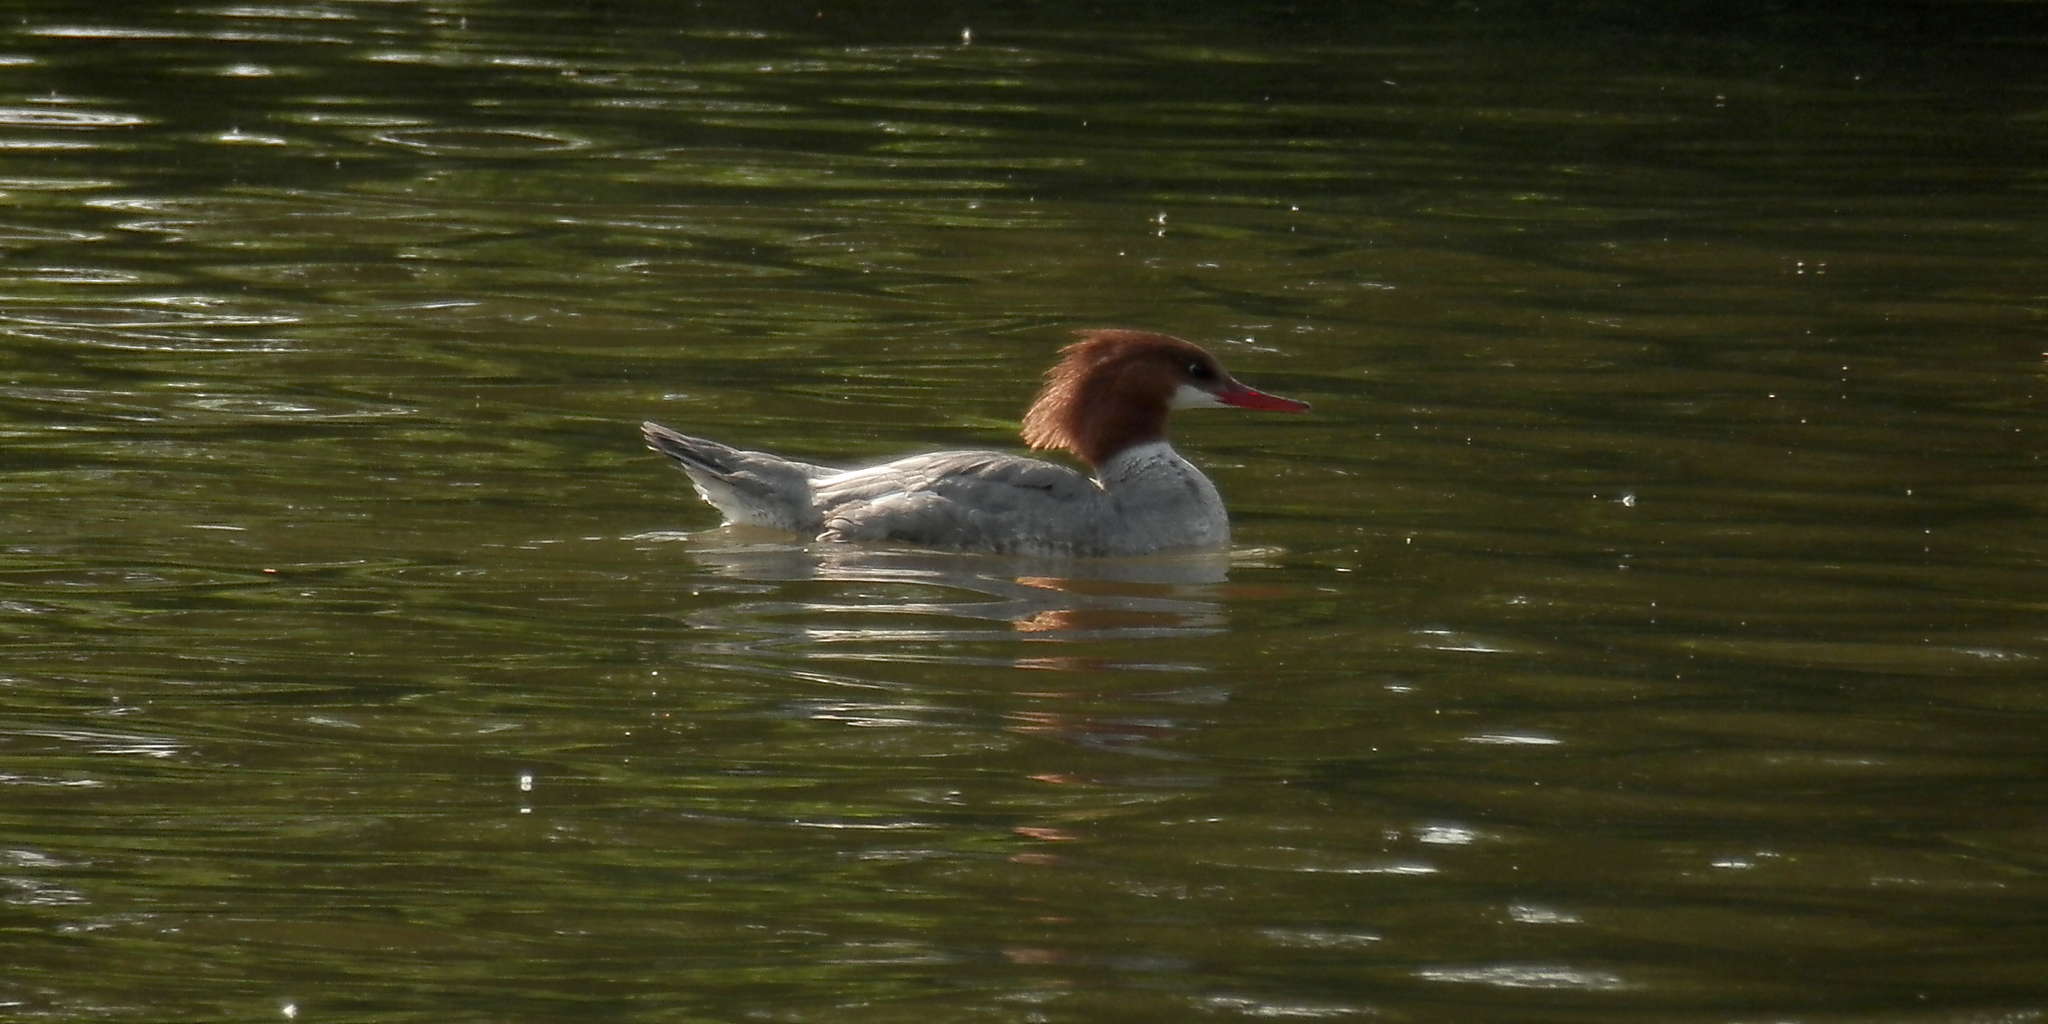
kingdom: Animalia
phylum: Chordata
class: Aves
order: Anseriformes
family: Anatidae
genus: Mergus
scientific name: Mergus merganser
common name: Common merganser
